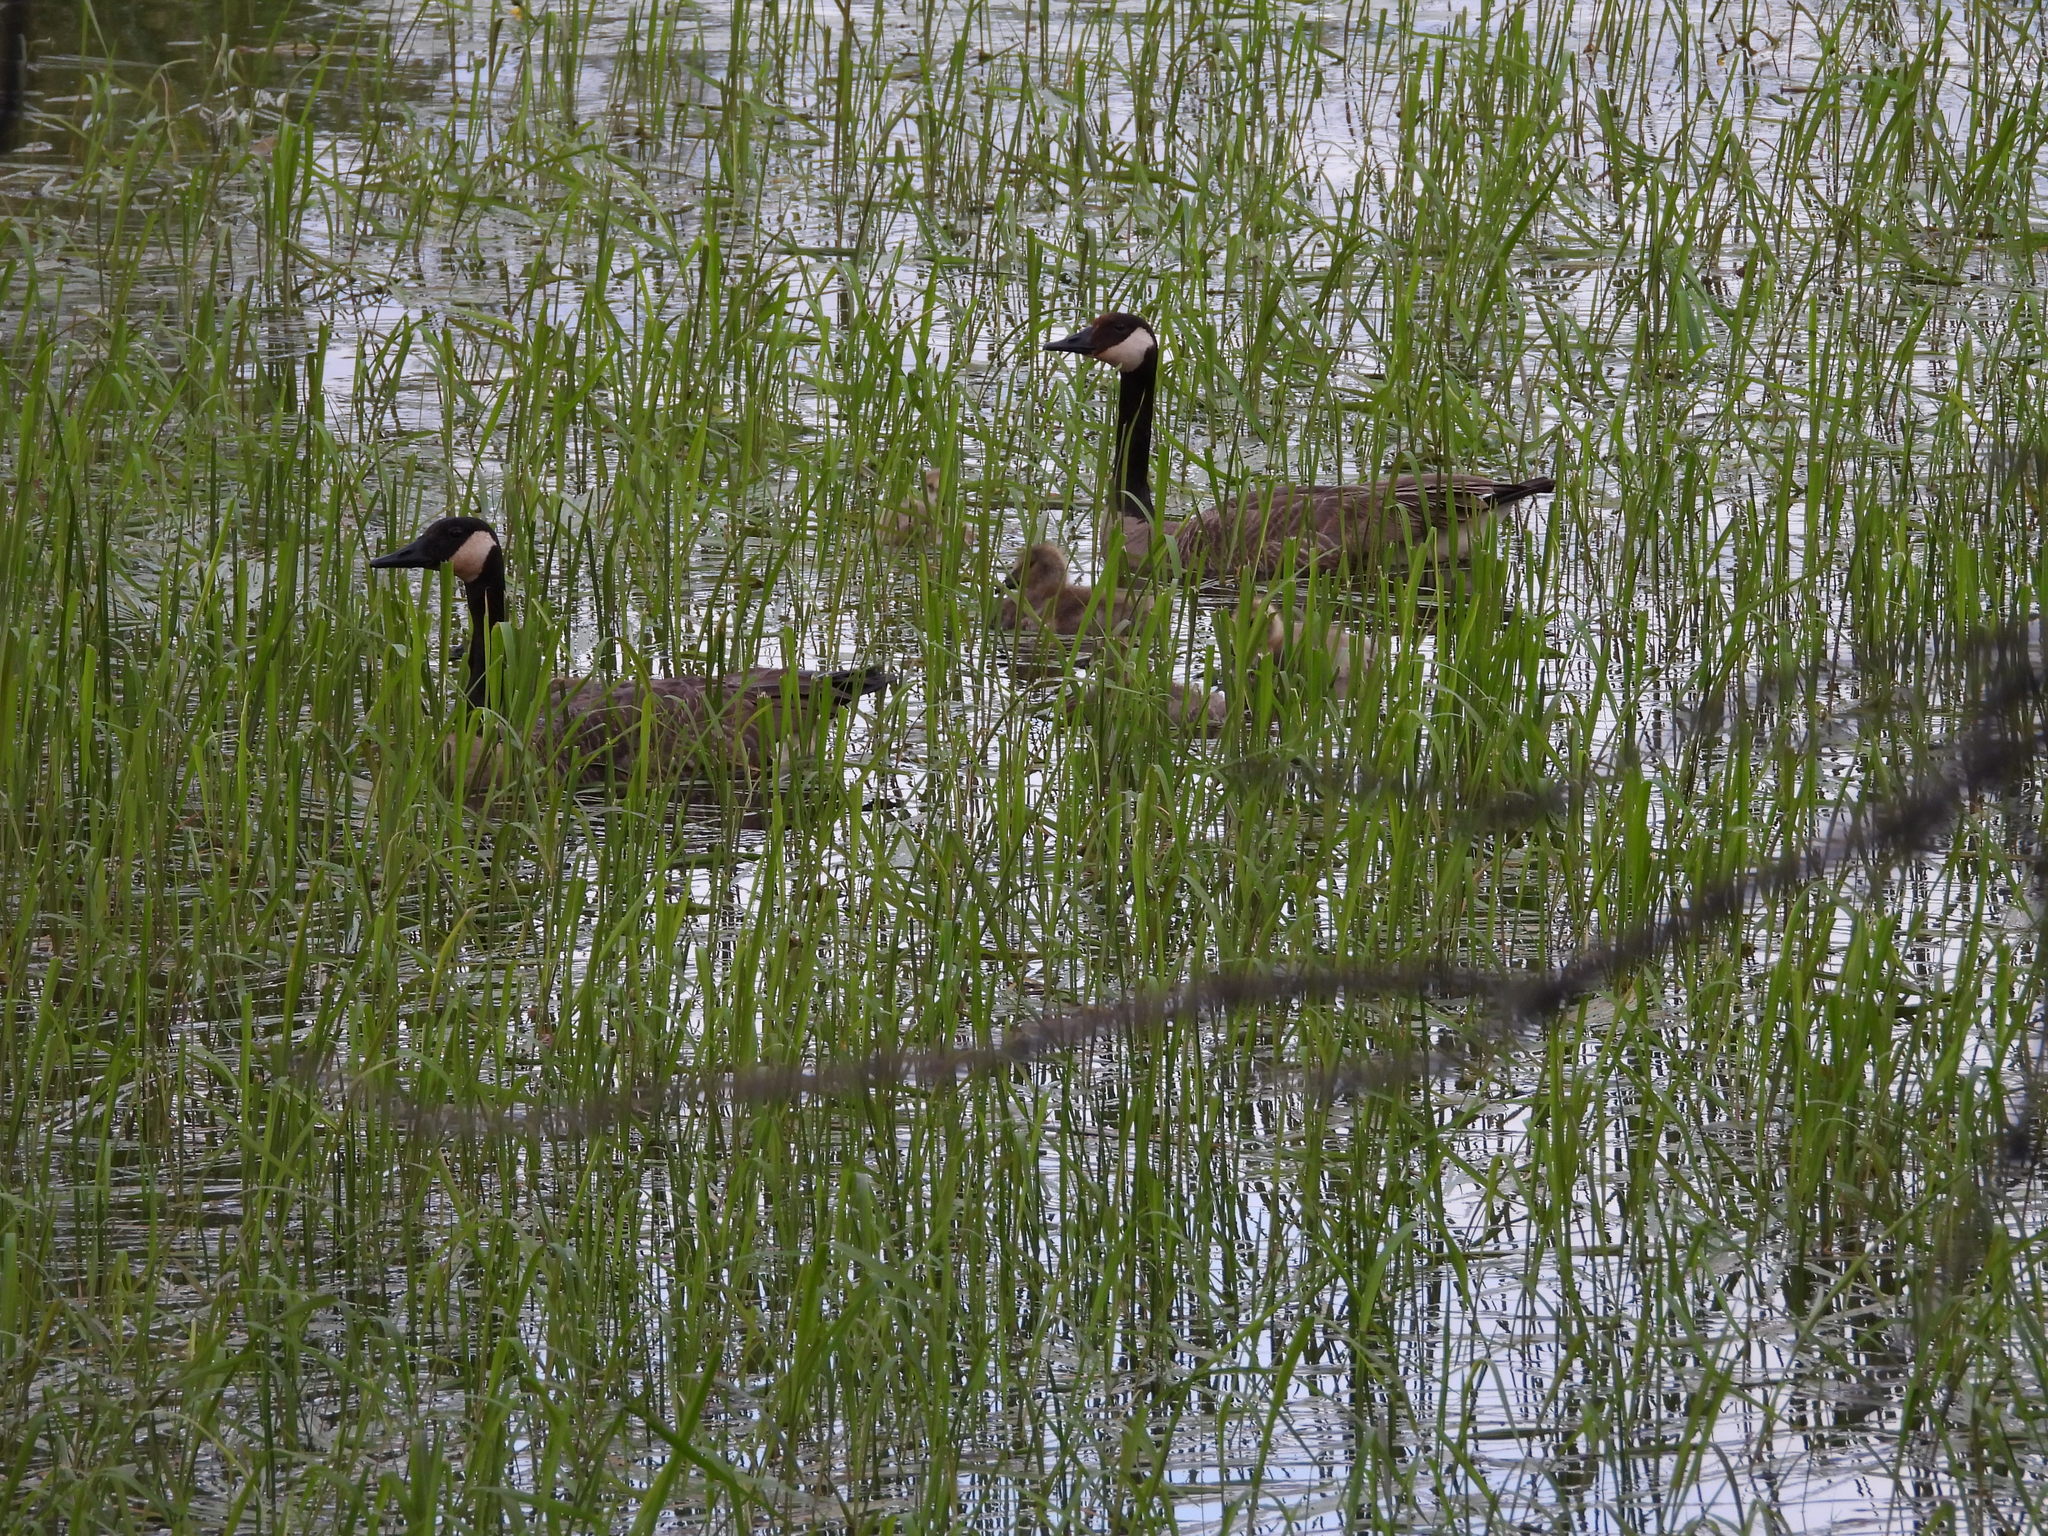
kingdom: Animalia
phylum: Chordata
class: Aves
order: Anseriformes
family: Anatidae
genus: Branta
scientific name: Branta canadensis
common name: Canada goose
